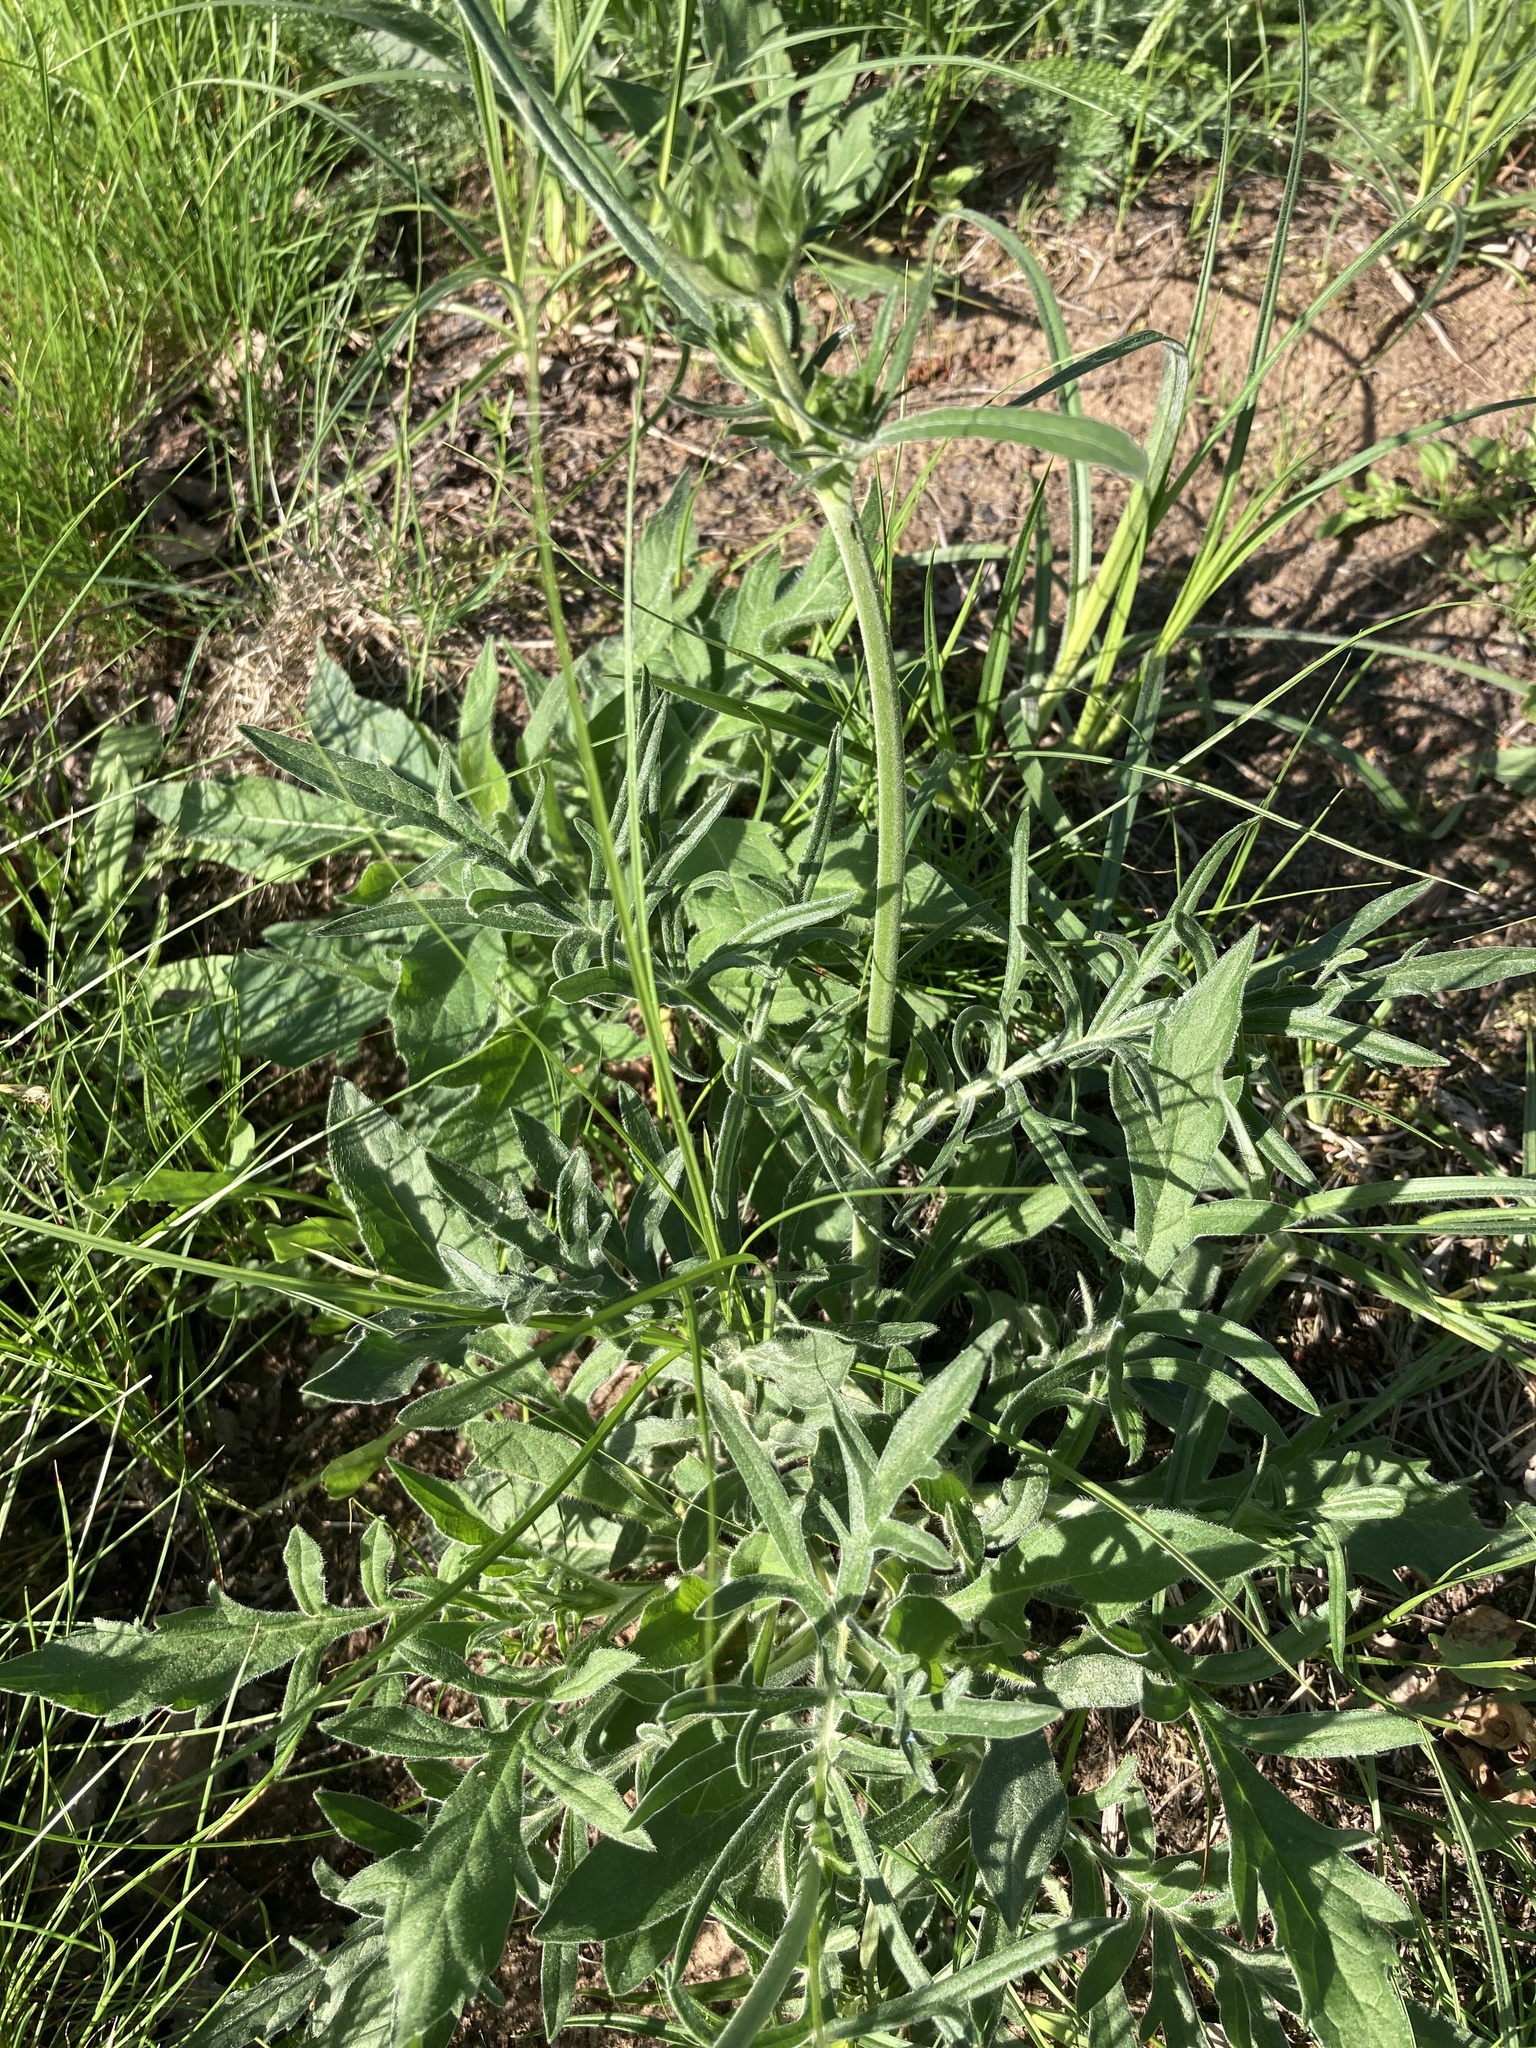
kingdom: Plantae
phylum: Tracheophyta
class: Magnoliopsida
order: Dipsacales
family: Caprifoliaceae
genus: Knautia
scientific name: Knautia arvensis
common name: Field scabiosa
